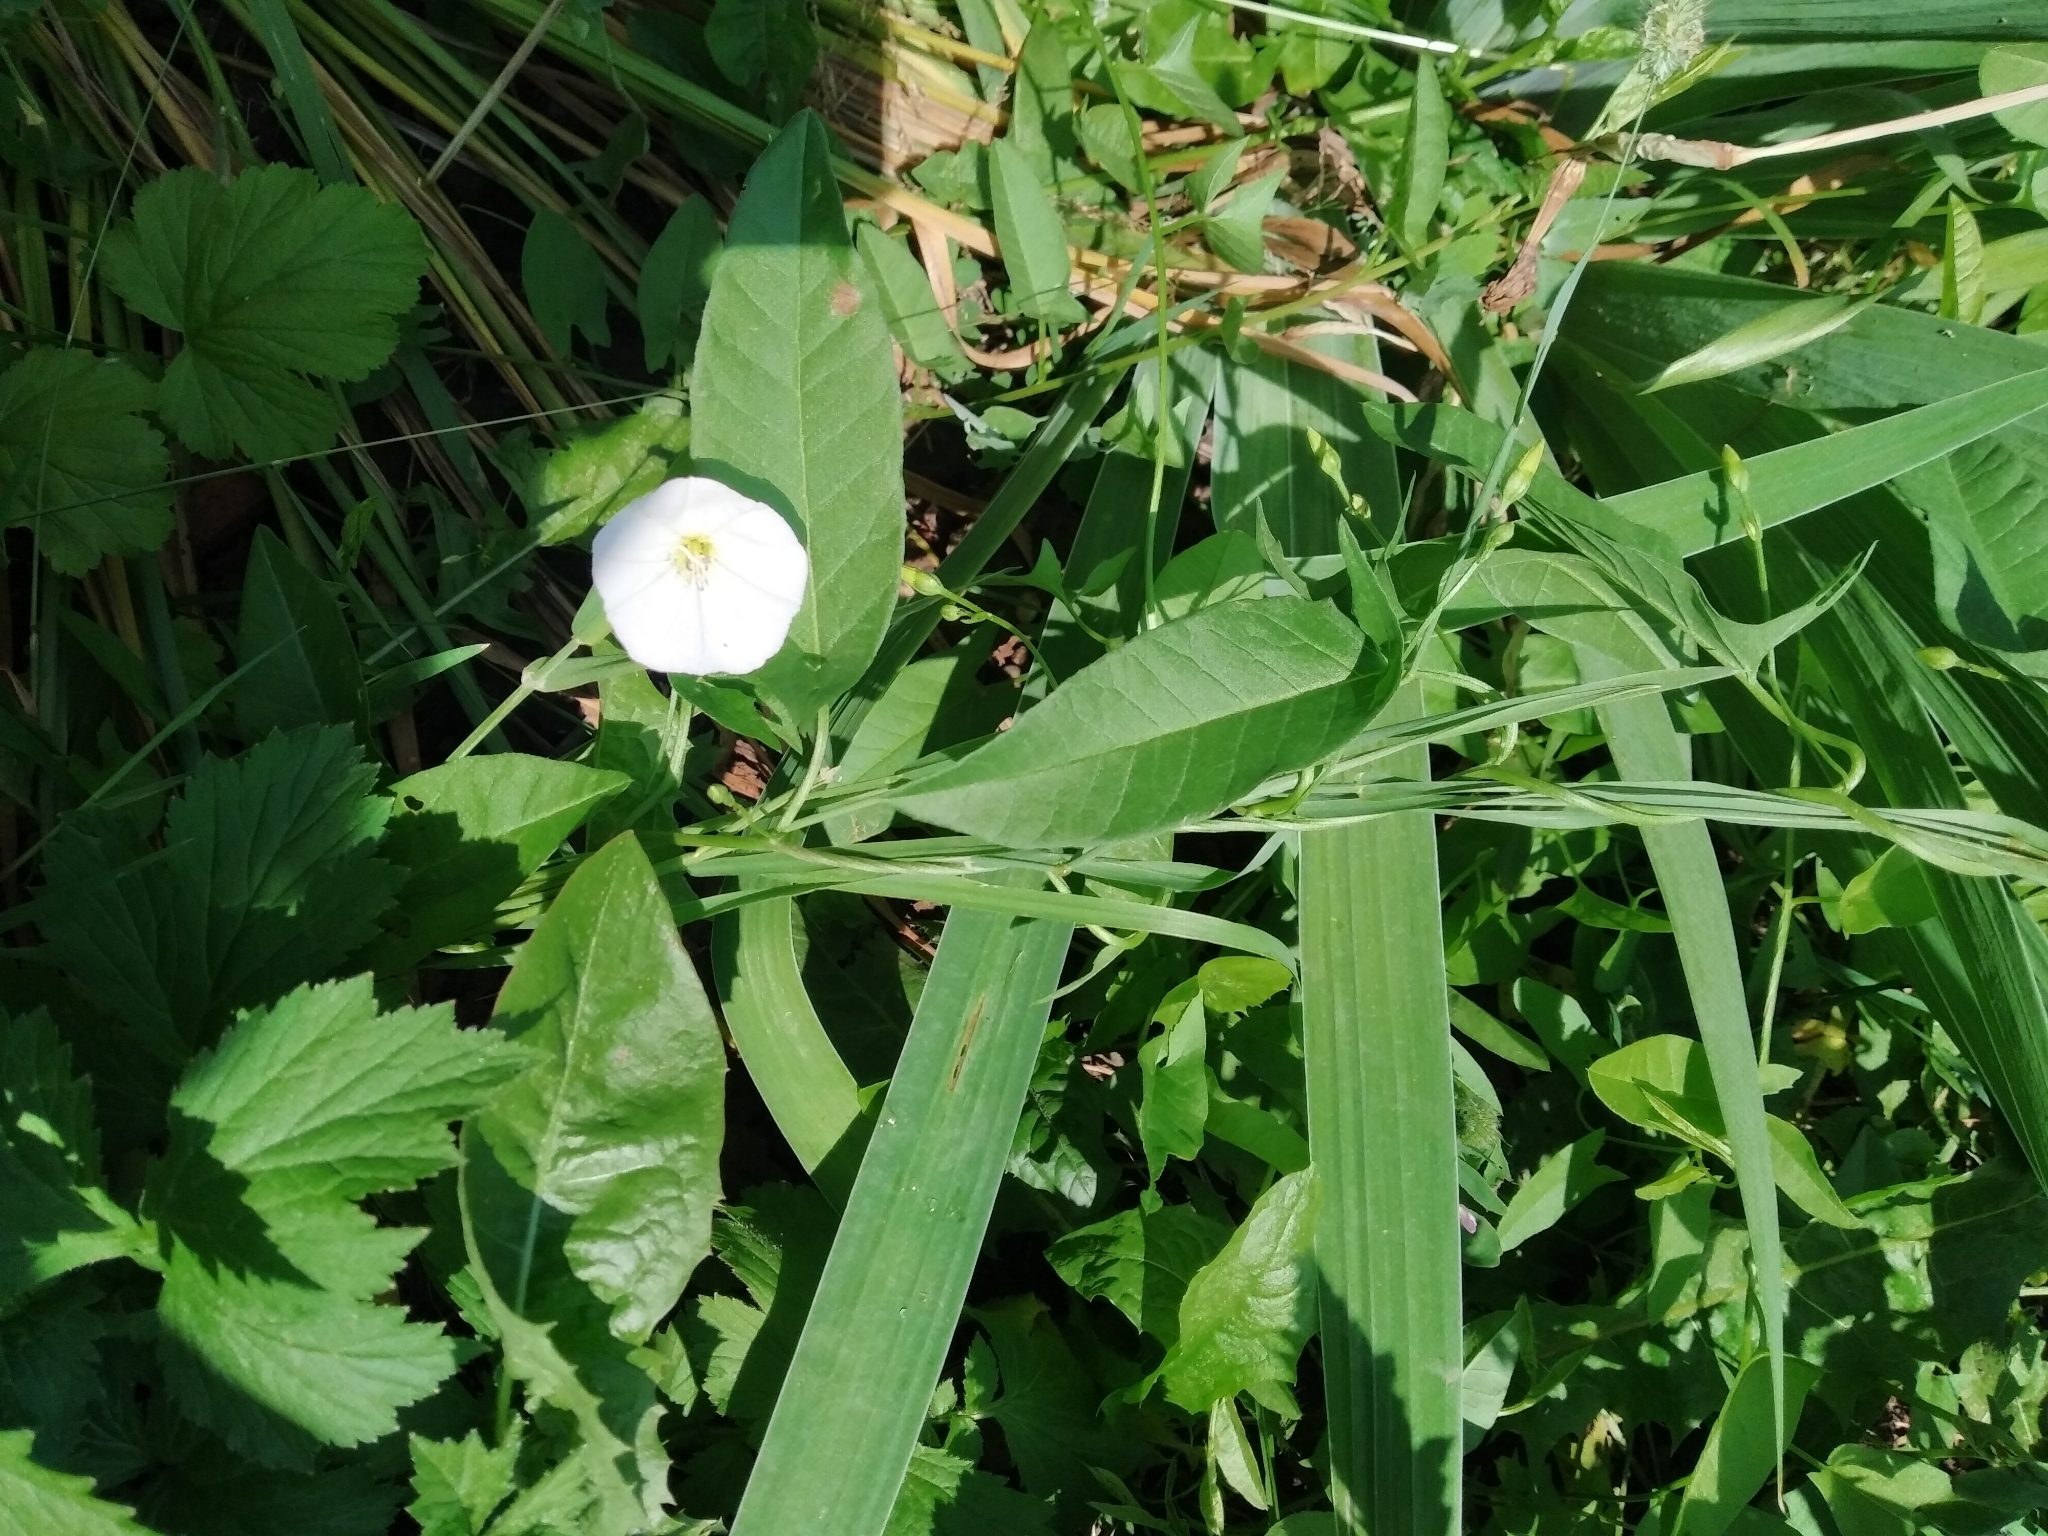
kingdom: Plantae
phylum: Tracheophyta
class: Magnoliopsida
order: Solanales
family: Convolvulaceae
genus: Convolvulus
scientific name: Convolvulus arvensis
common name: Field bindweed
